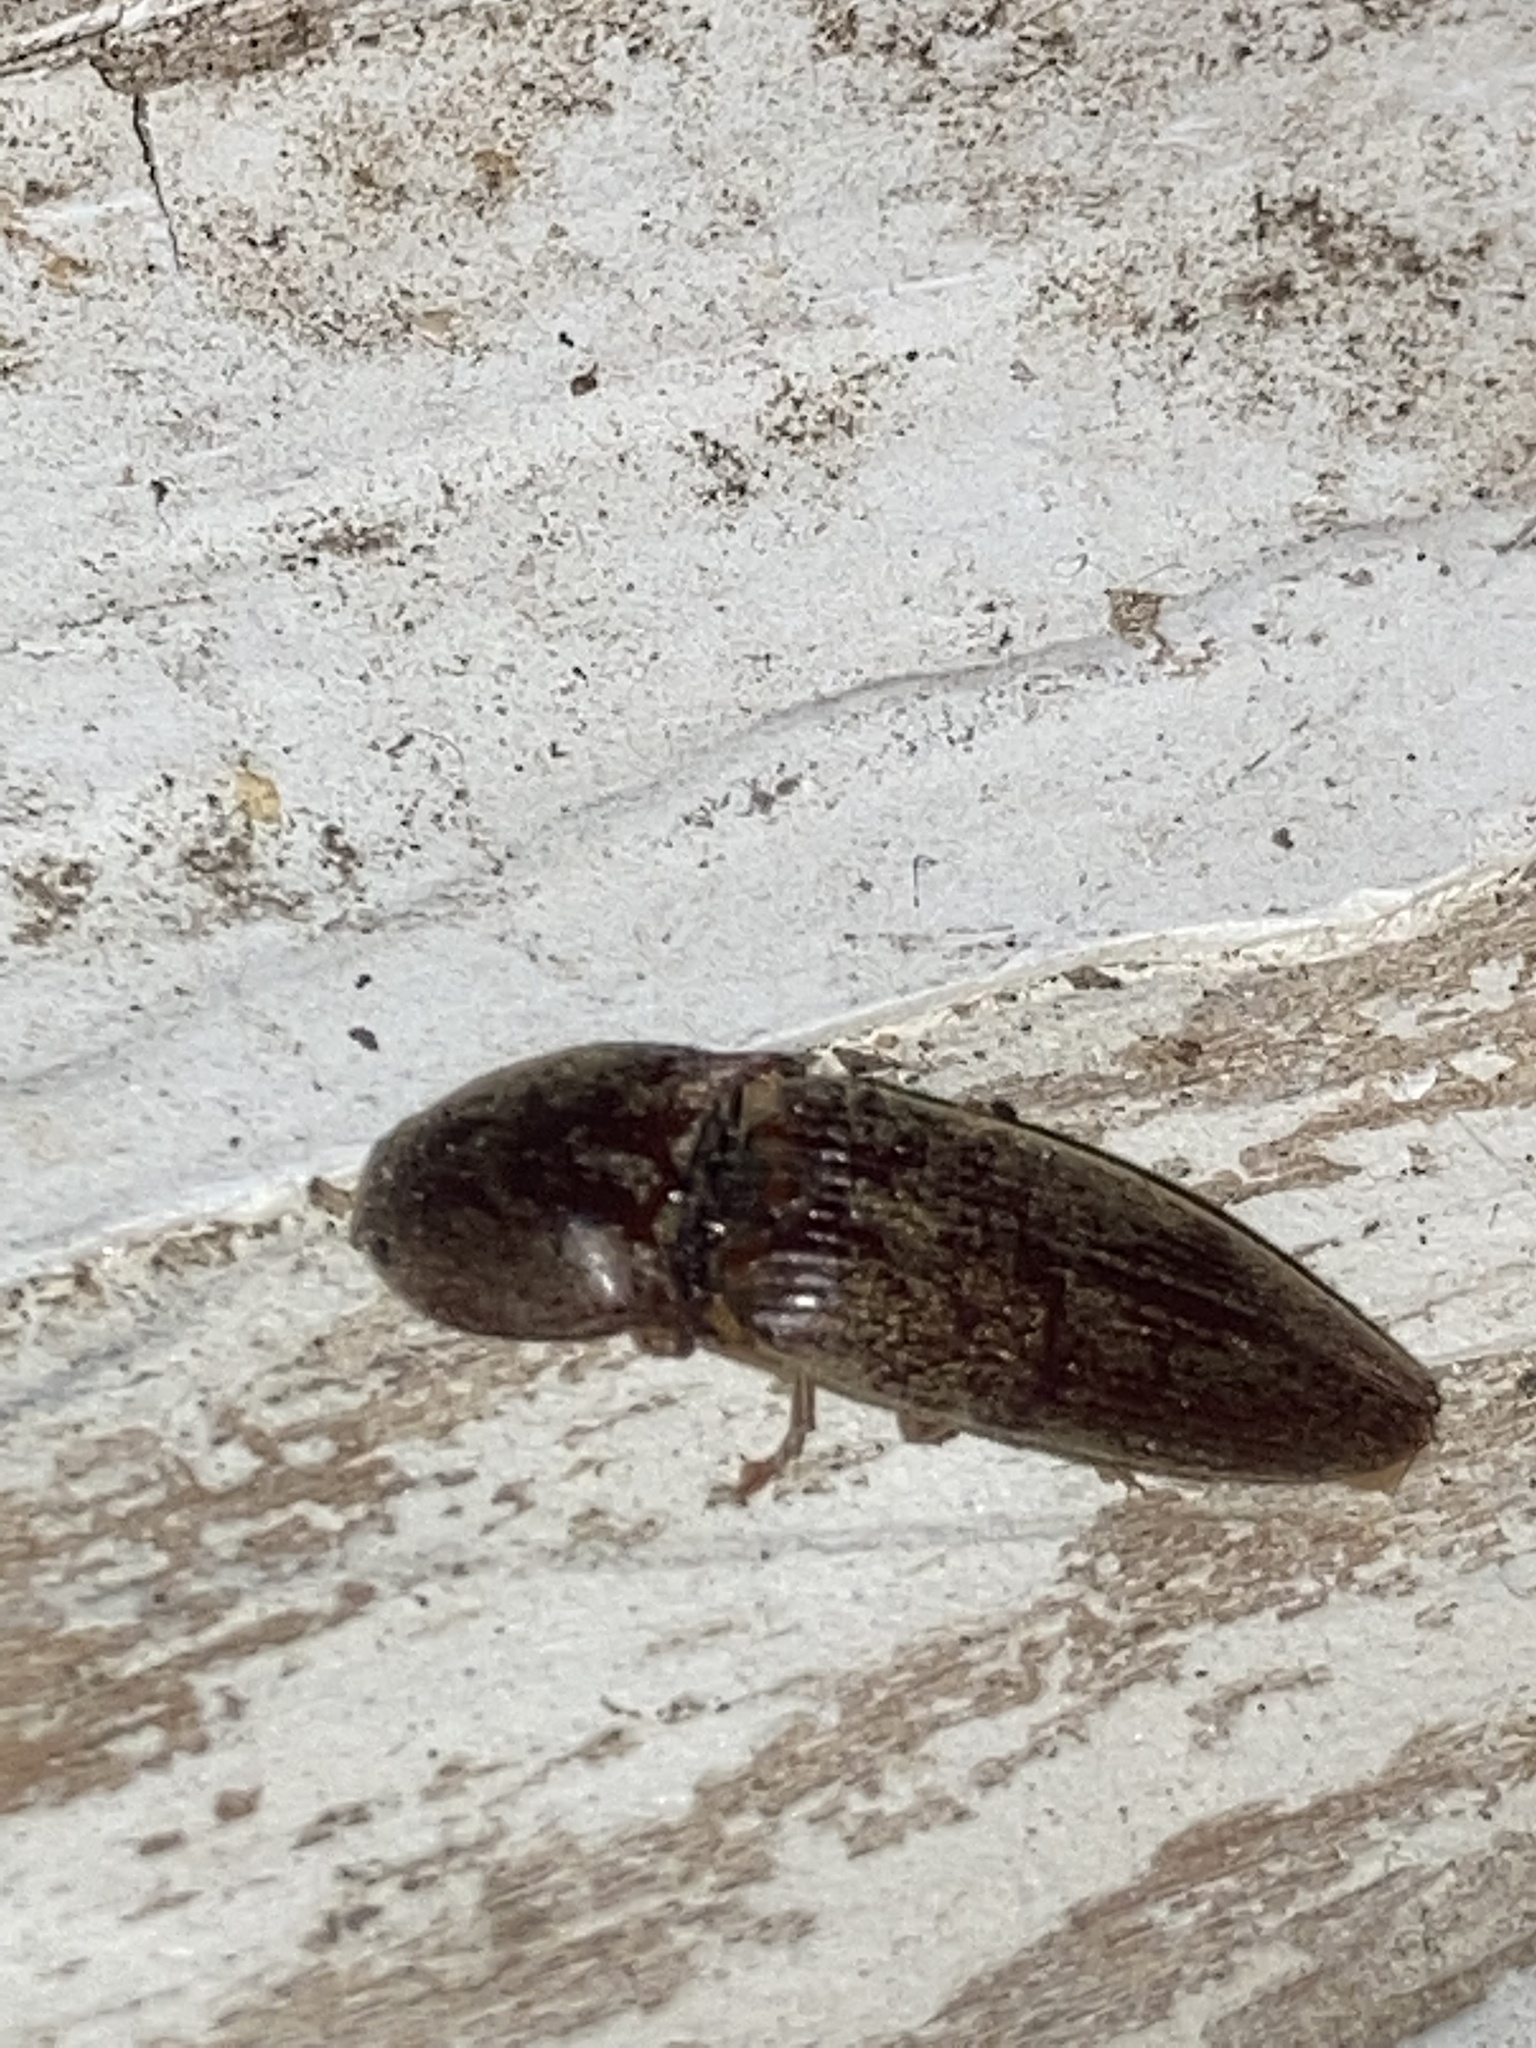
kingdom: Animalia
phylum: Arthropoda
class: Insecta
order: Coleoptera
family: Elateridae
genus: Monocrepidius
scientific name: Monocrepidius lividus
